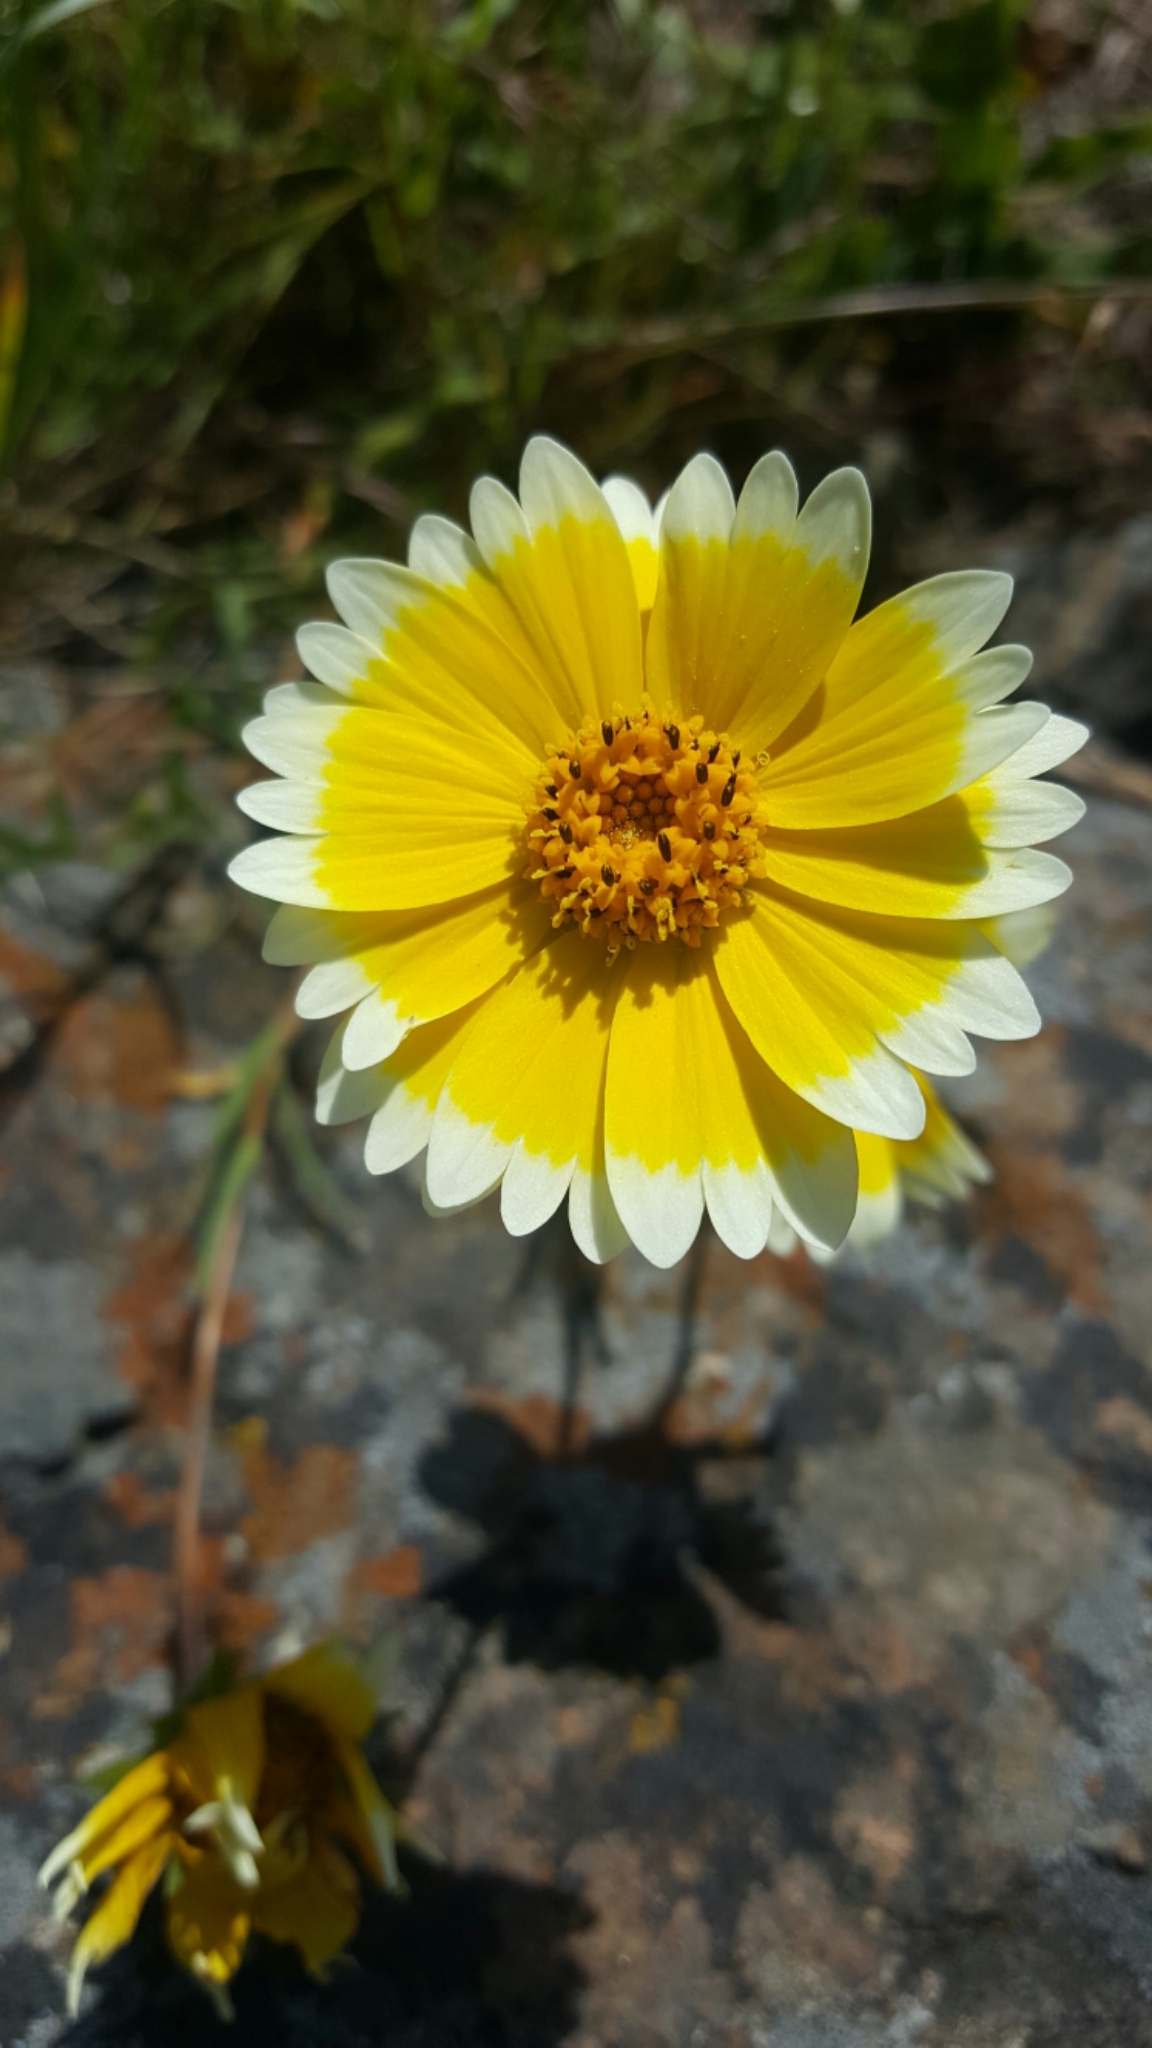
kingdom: Plantae
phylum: Tracheophyta
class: Magnoliopsida
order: Asterales
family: Asteraceae
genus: Layia
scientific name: Layia platyglossa
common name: Tidy-tips
